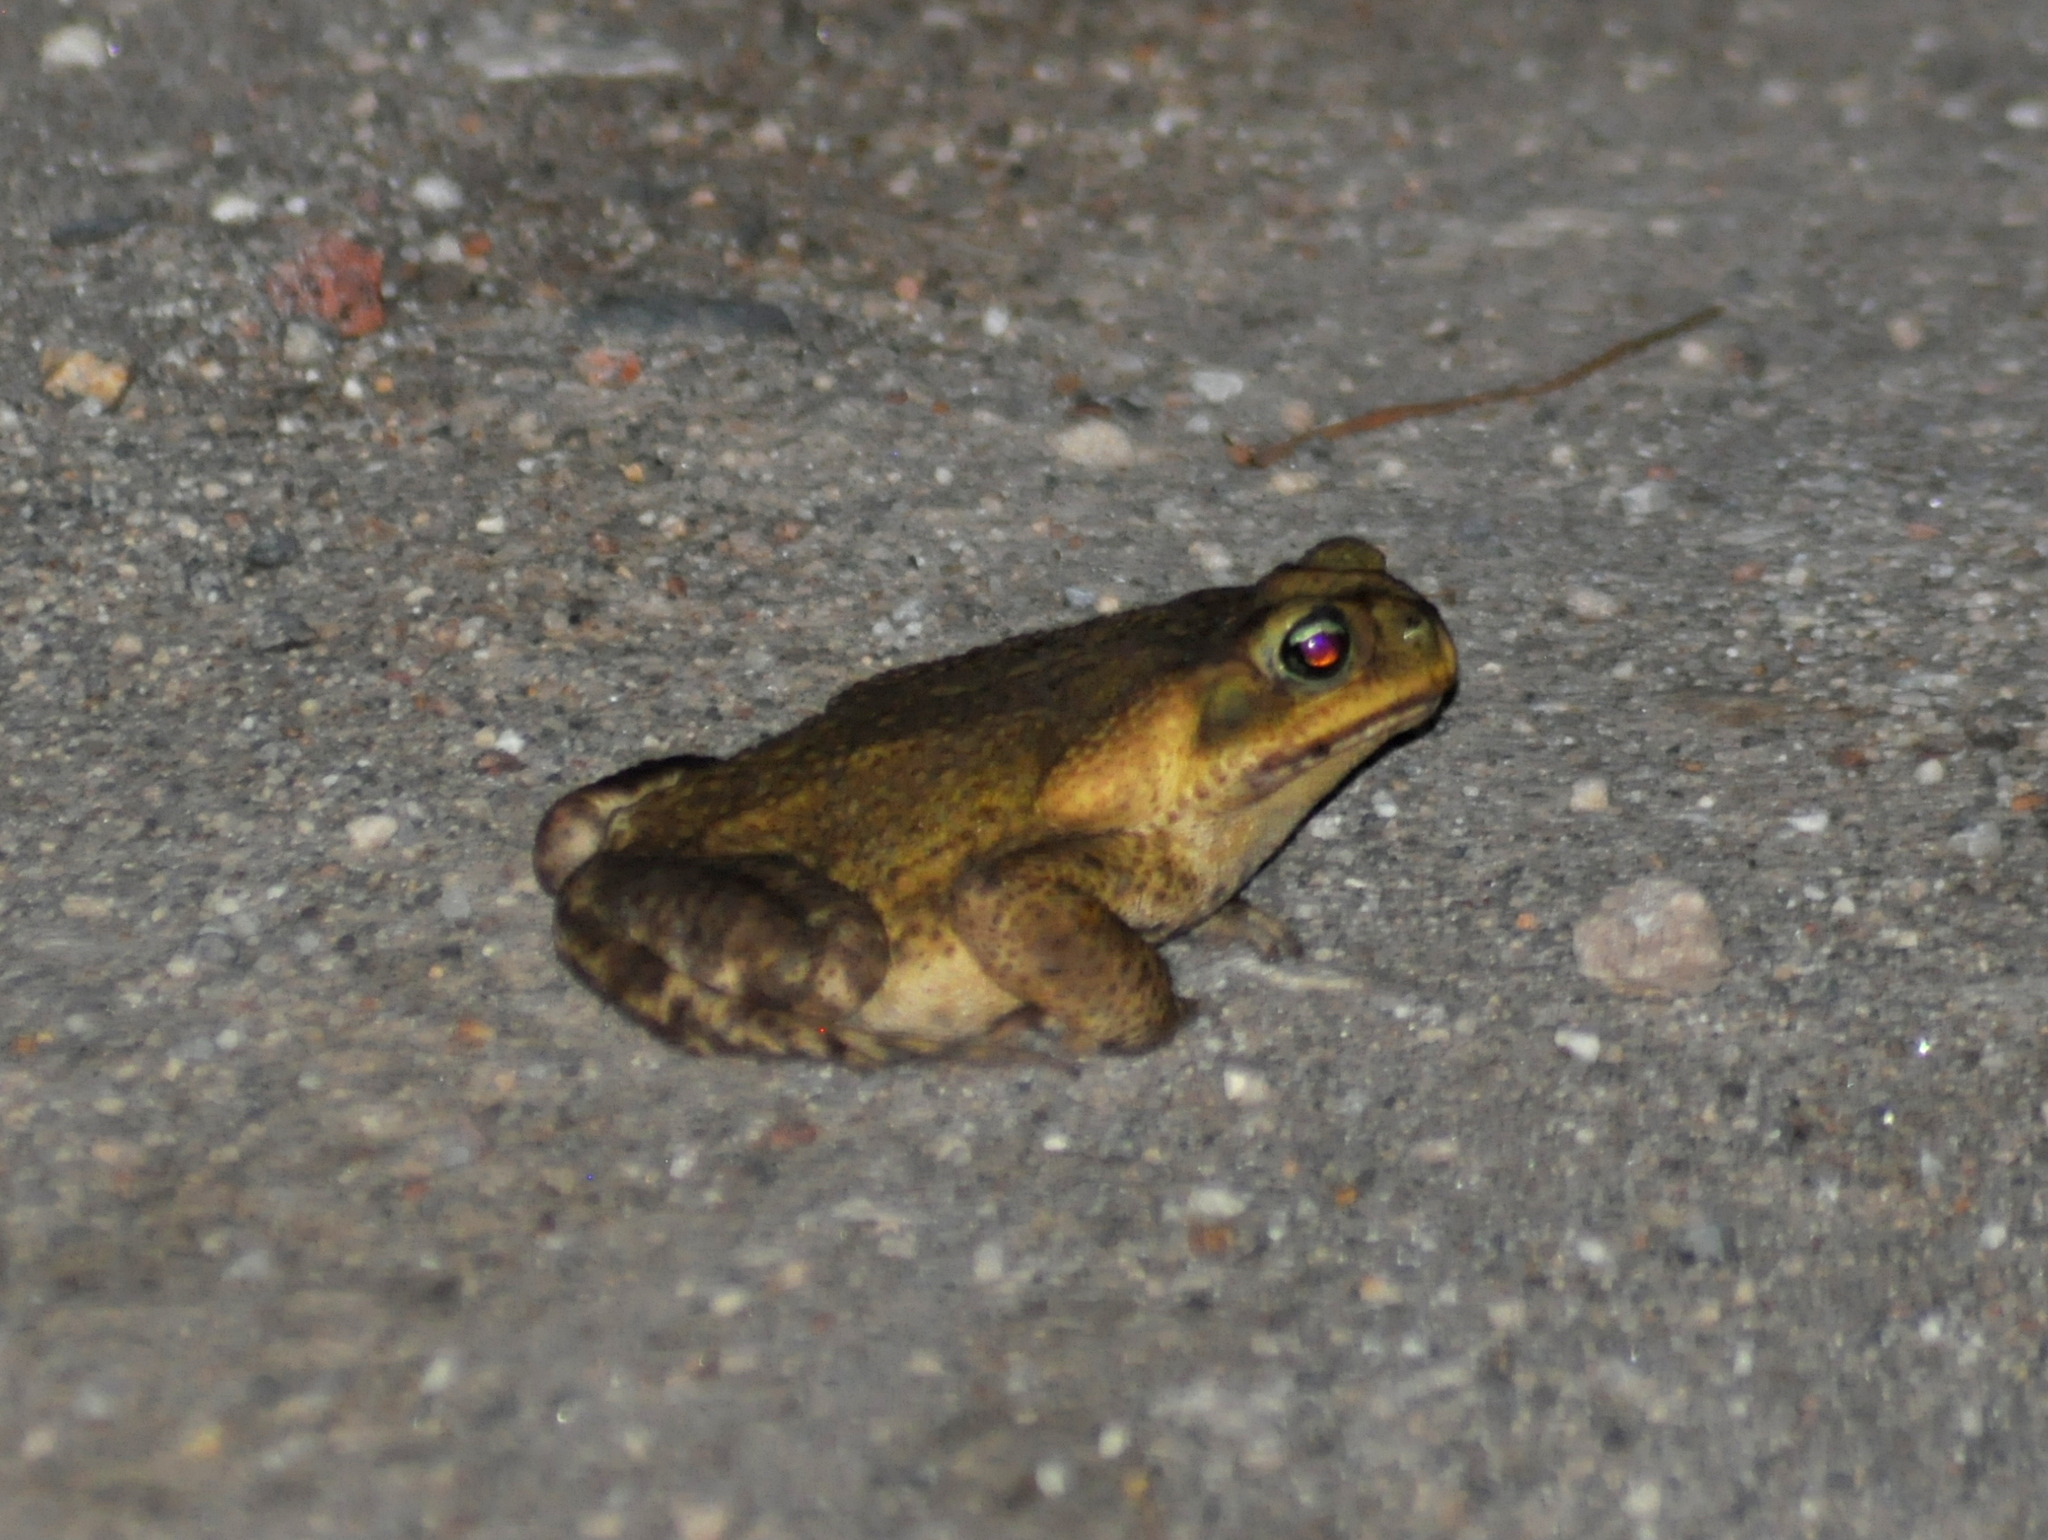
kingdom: Animalia
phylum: Chordata
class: Amphibia
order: Anura
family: Bufonidae
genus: Rhinella
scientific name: Rhinella icterica
